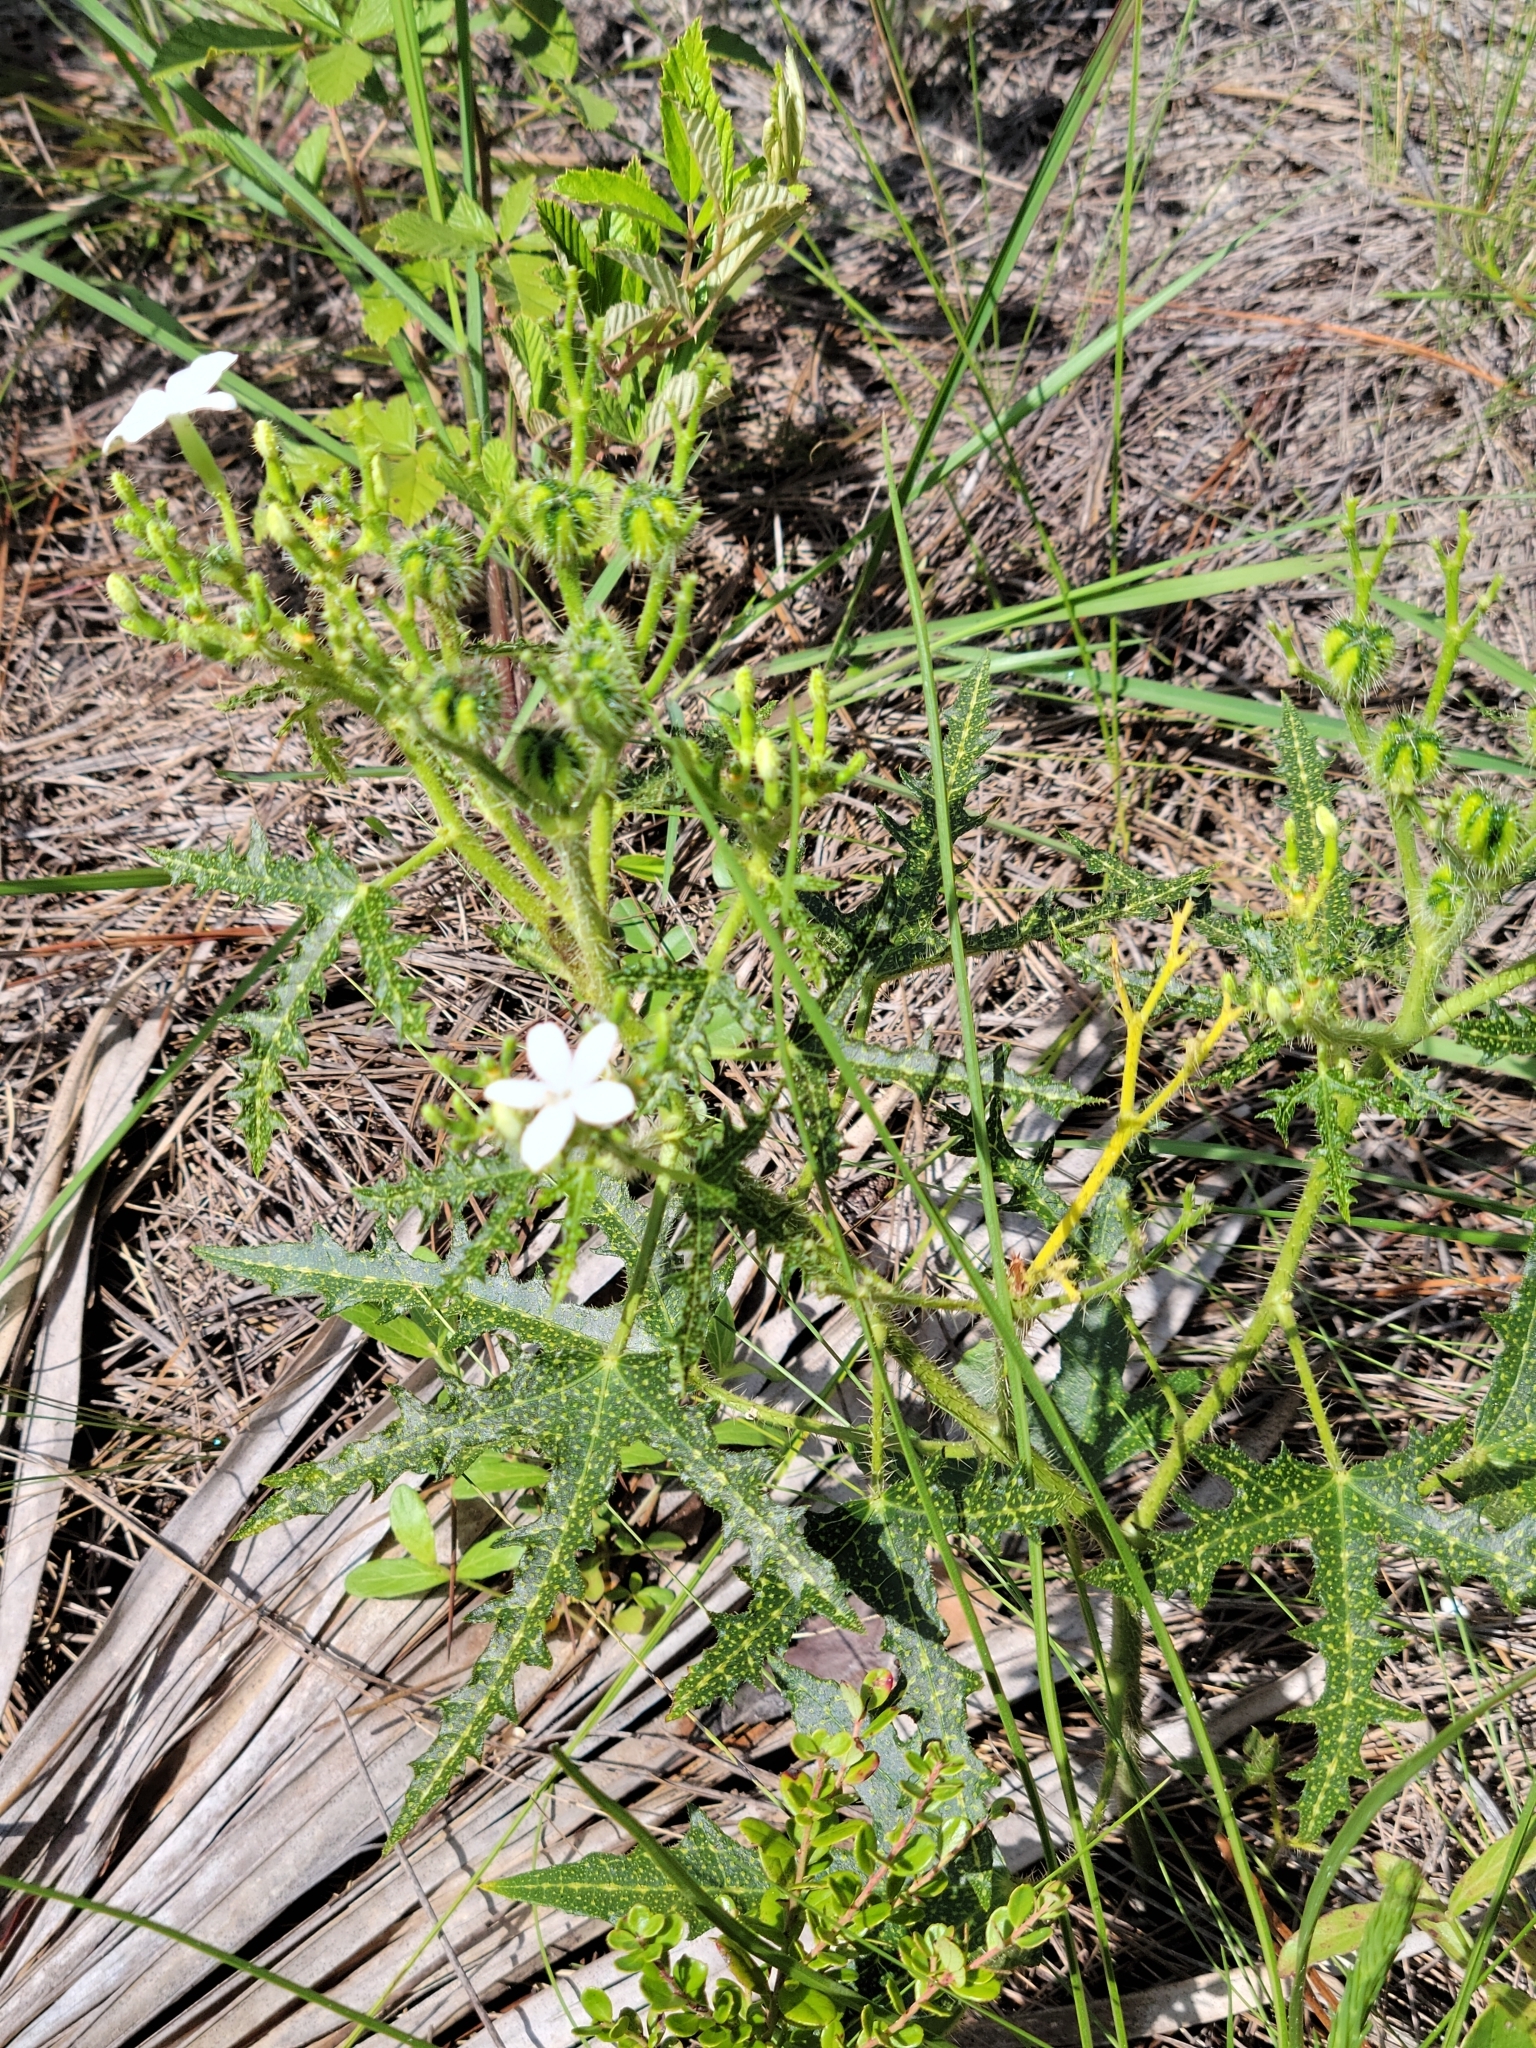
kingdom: Plantae
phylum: Tracheophyta
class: Magnoliopsida
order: Malpighiales
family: Euphorbiaceae
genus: Cnidoscolus
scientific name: Cnidoscolus stimulosus
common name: Bull-nettle
